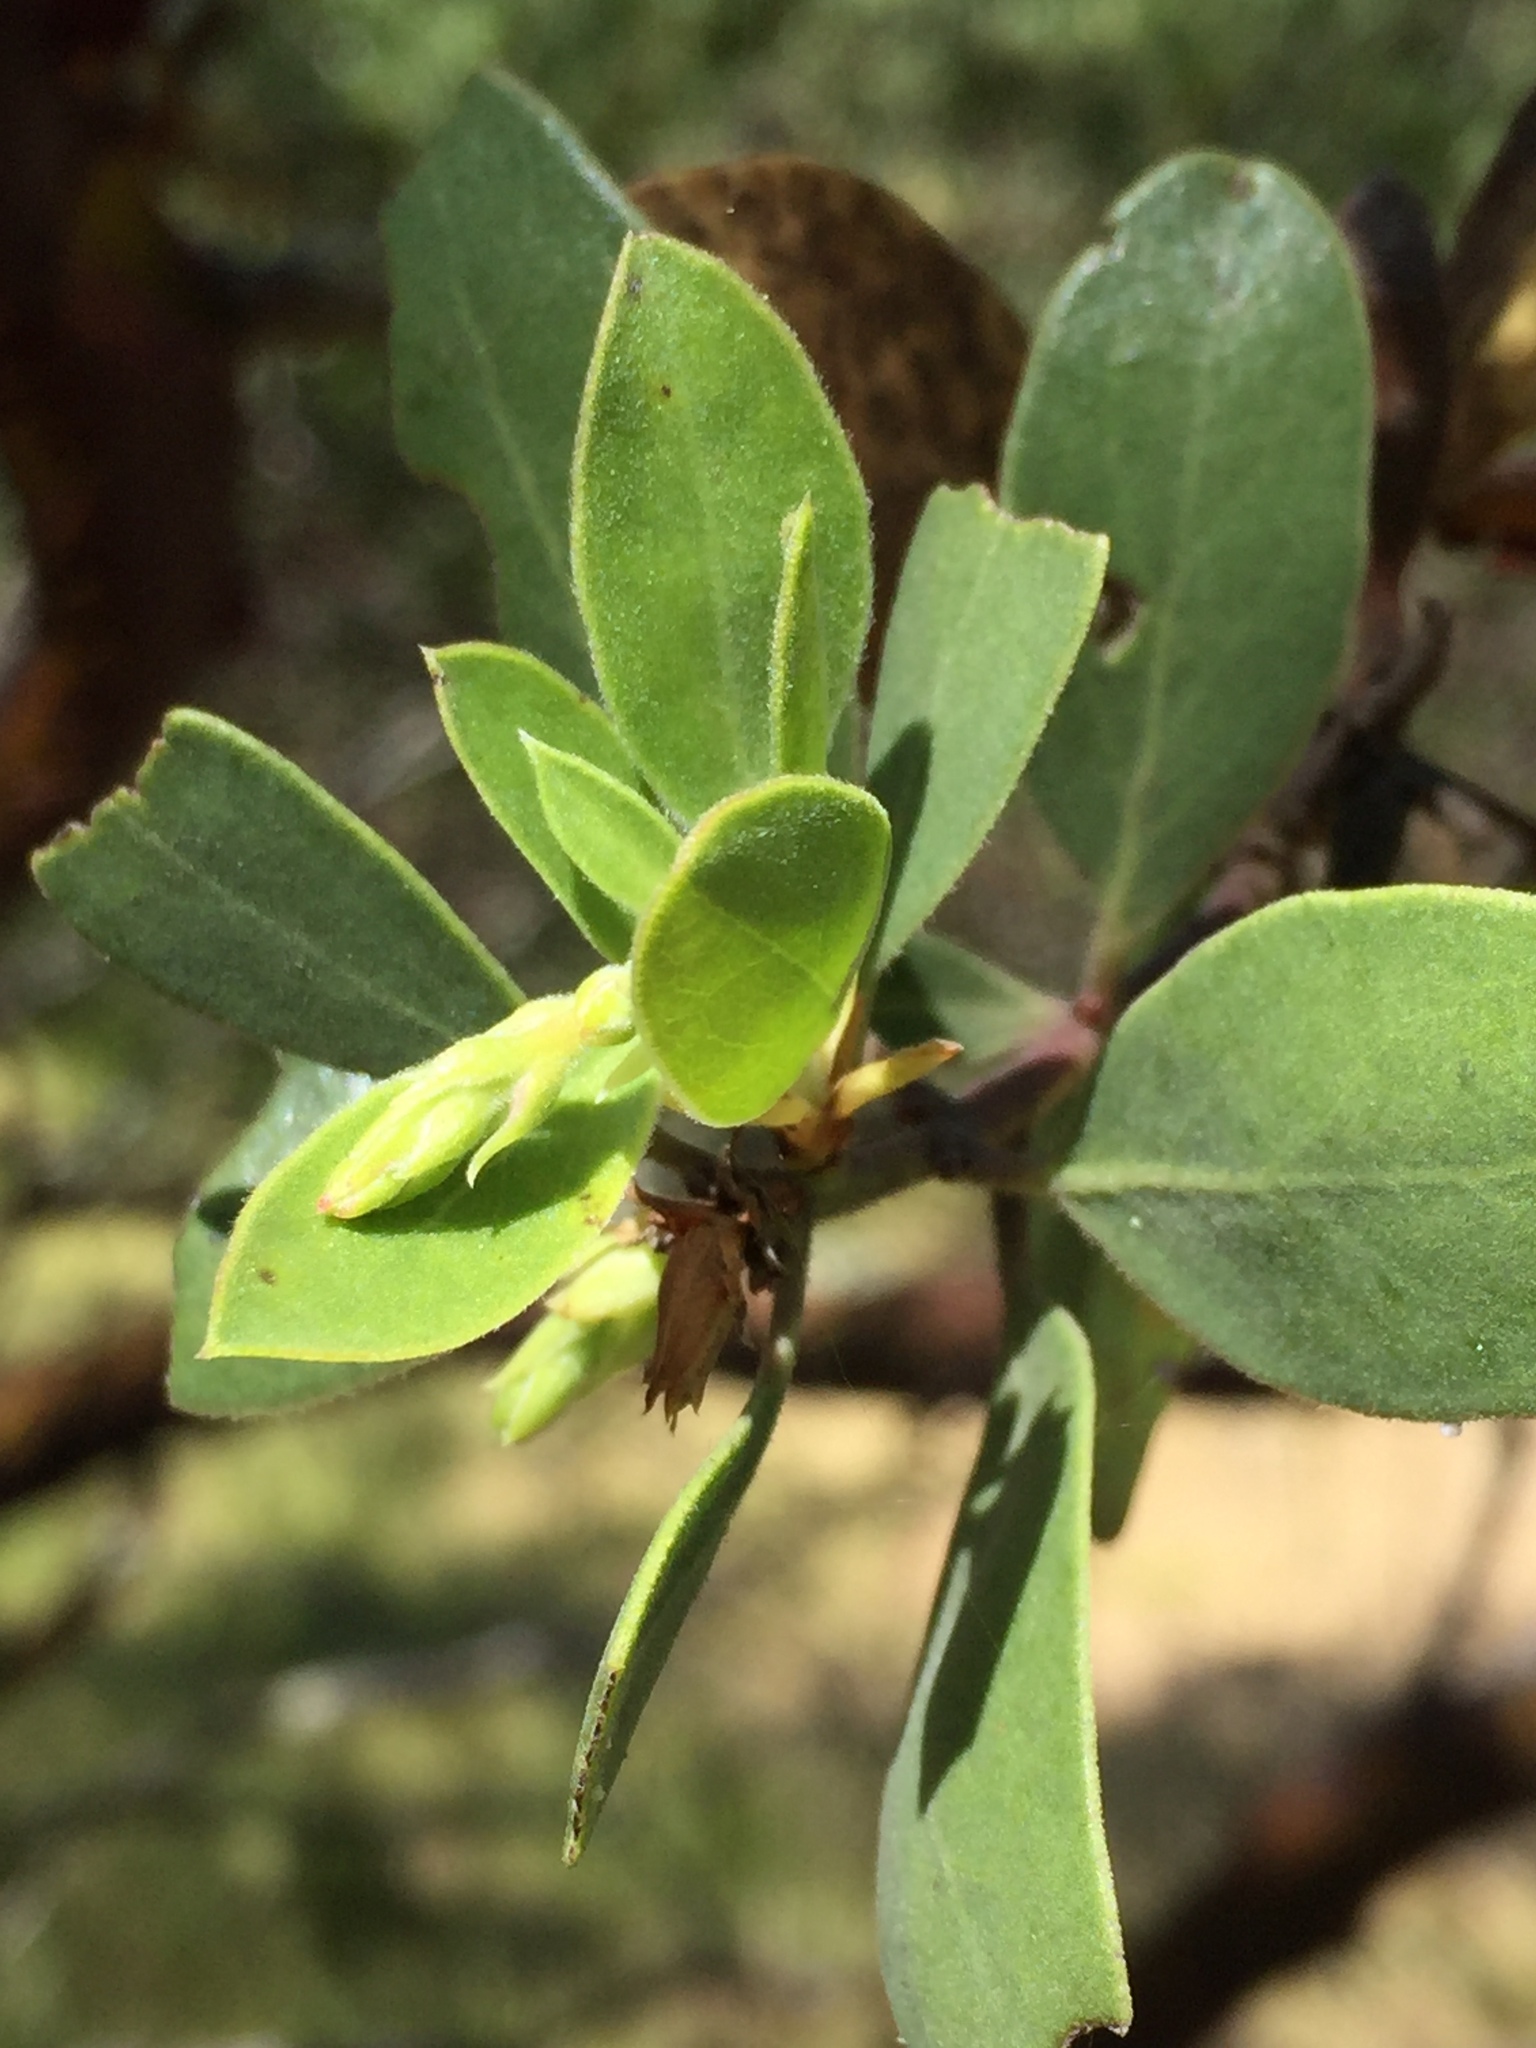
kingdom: Plantae
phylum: Tracheophyta
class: Magnoliopsida
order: Ericales
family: Ericaceae
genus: Arctostaphylos
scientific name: Arctostaphylos manzanita
